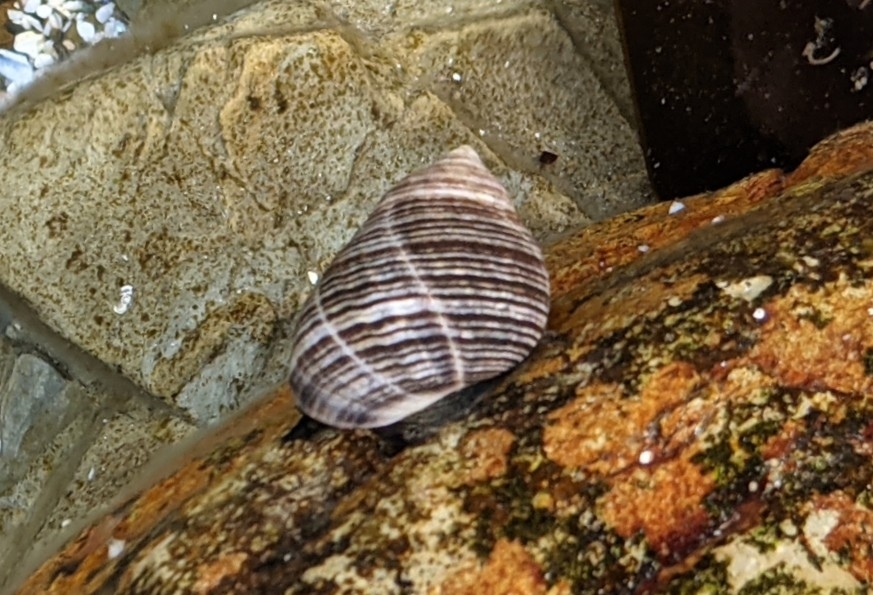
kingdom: Animalia
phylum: Mollusca
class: Gastropoda
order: Littorinimorpha
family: Littorinidae
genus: Littorina
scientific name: Littorina littorea
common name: Common periwinkle
